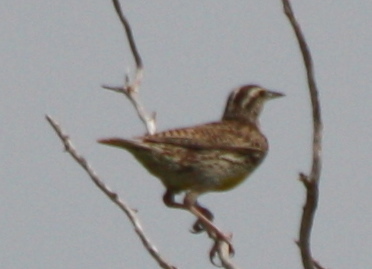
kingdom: Animalia
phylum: Chordata
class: Aves
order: Passeriformes
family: Icteridae
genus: Sturnella
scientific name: Sturnella neglecta
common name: Western meadowlark
